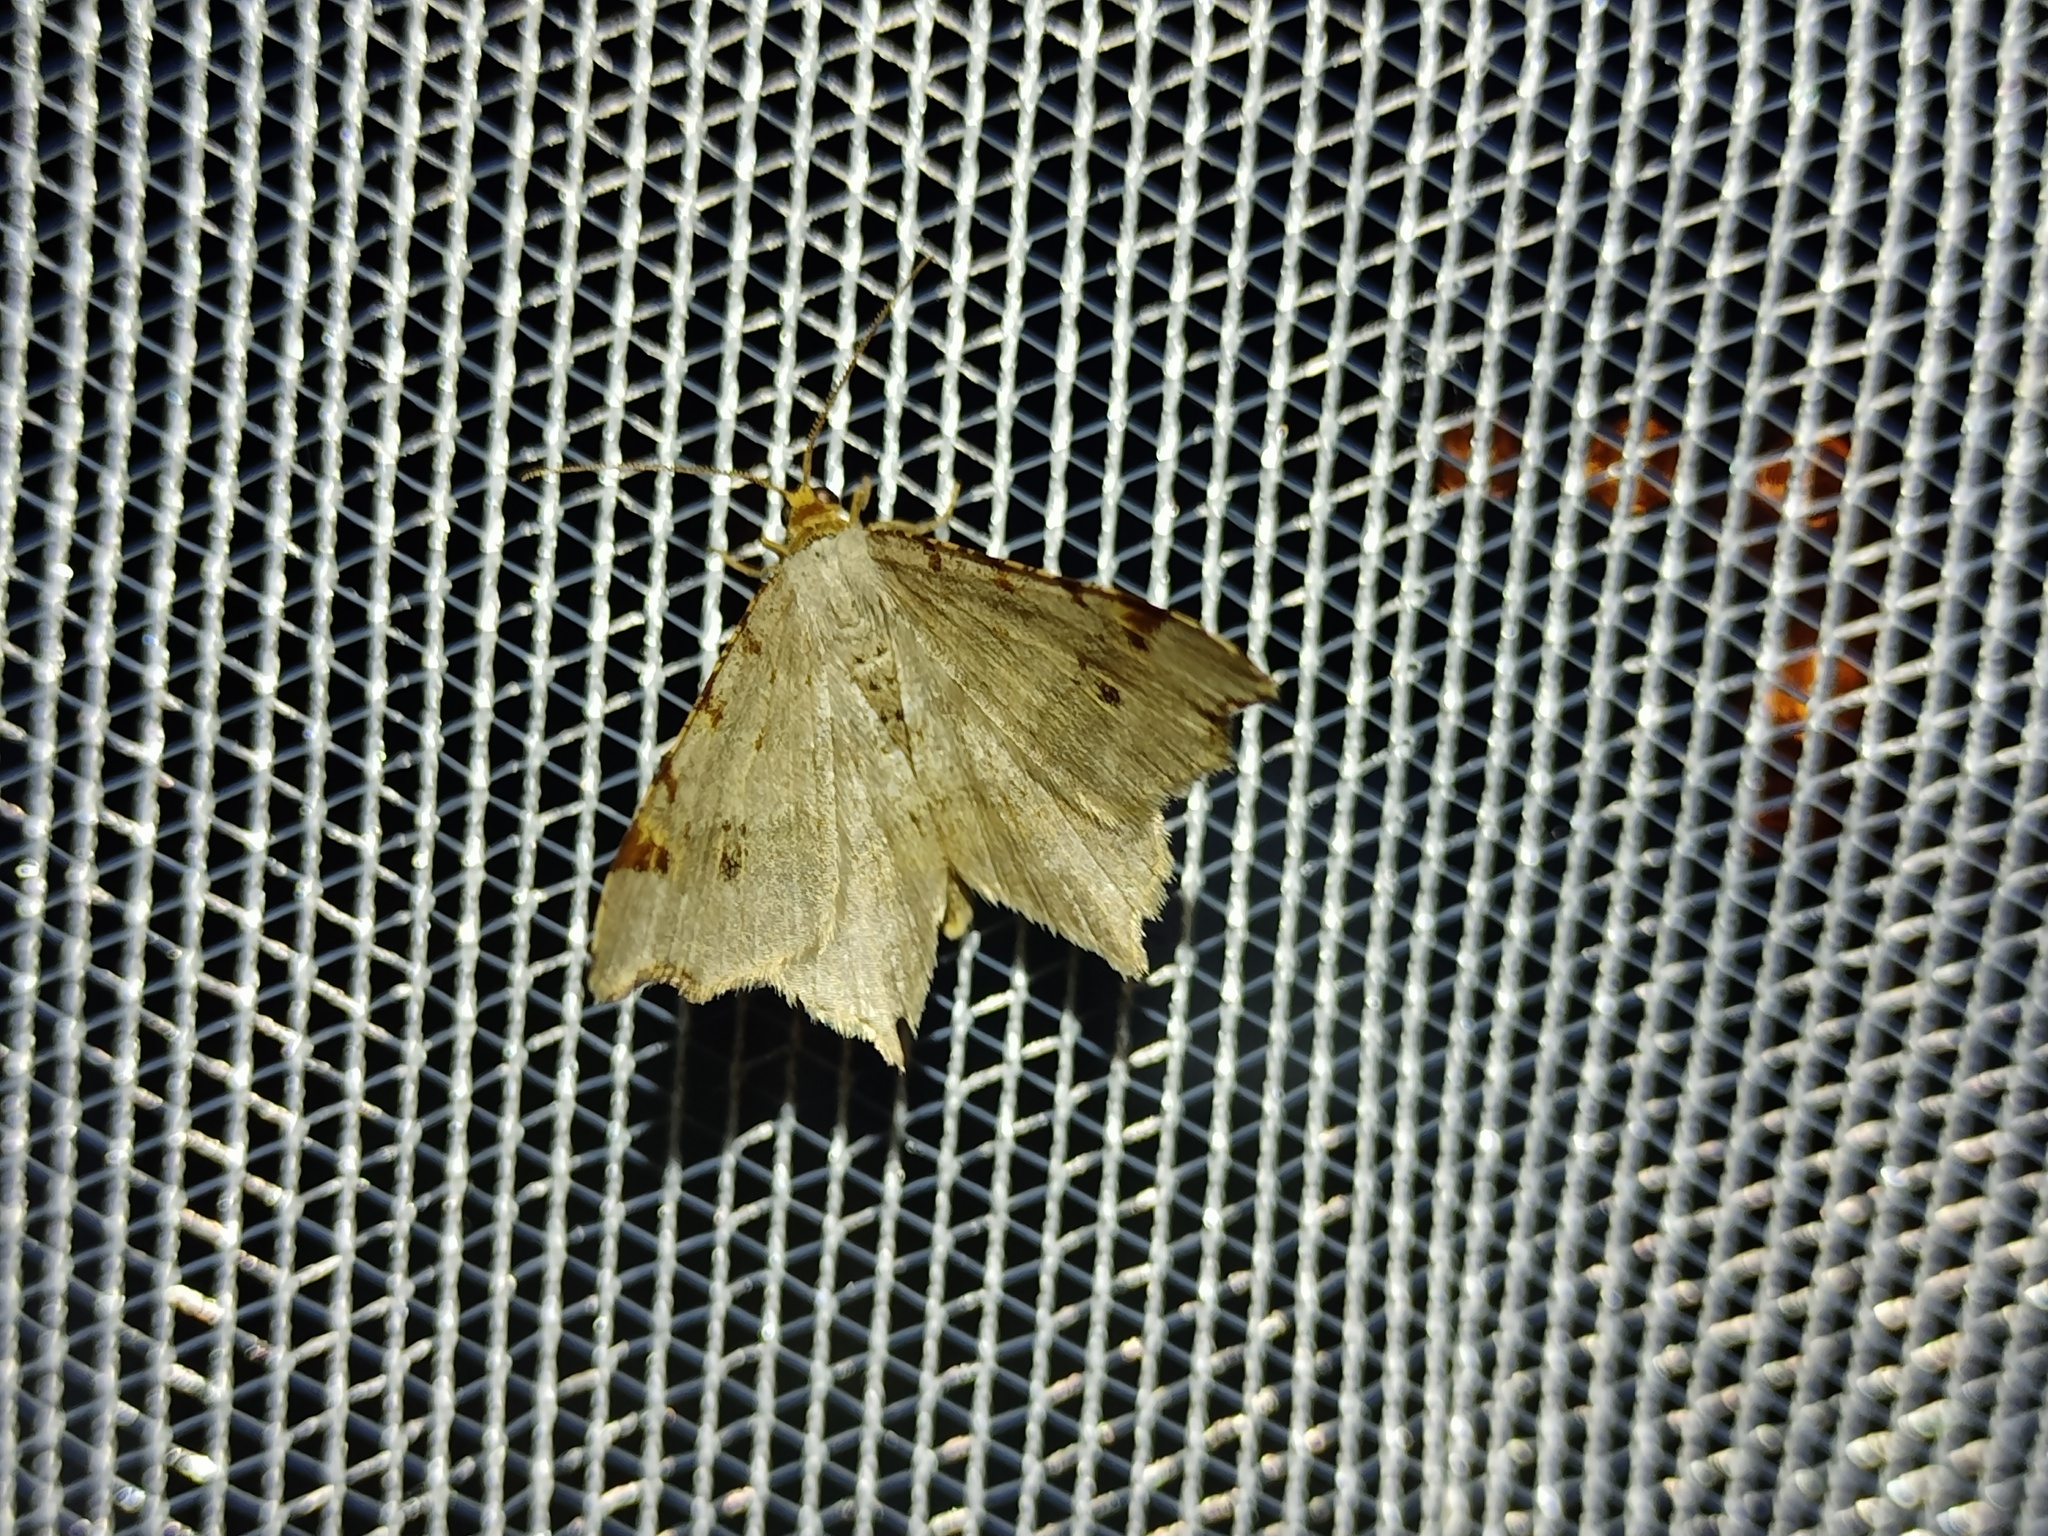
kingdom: Animalia
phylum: Arthropoda
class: Insecta
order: Lepidoptera
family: Geometridae
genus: Macaria
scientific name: Macaria alternata
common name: Sharp-angled peacock
